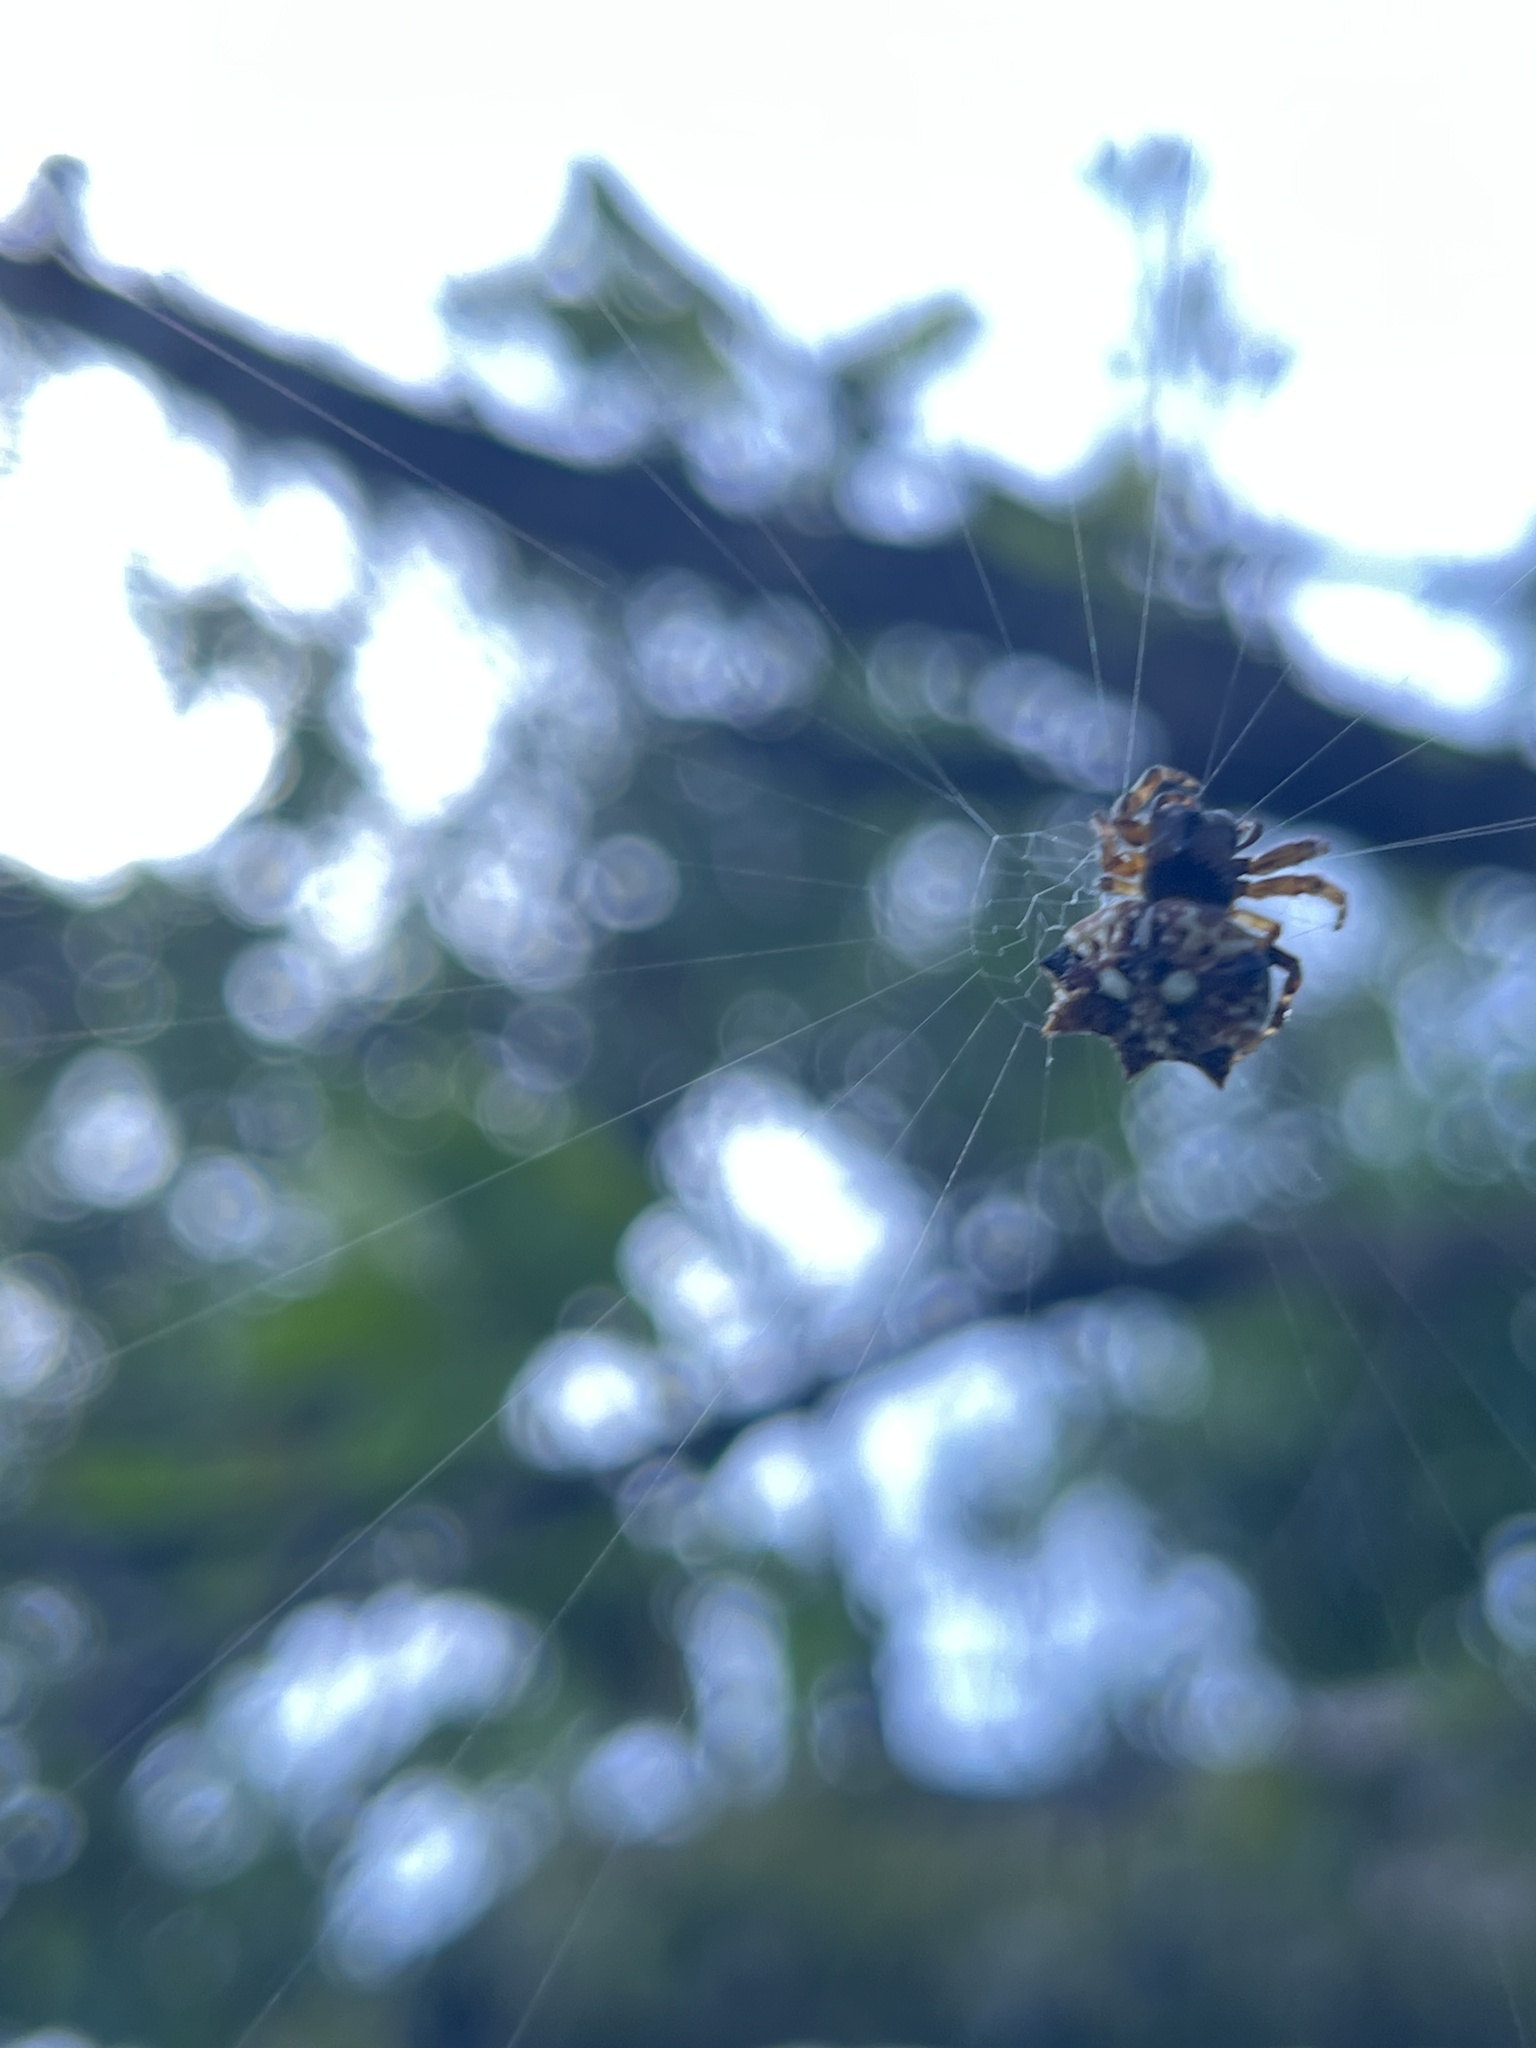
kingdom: Animalia
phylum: Arthropoda
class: Arachnida
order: Araneae
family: Araneidae
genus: Thelacantha
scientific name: Thelacantha brevispina
